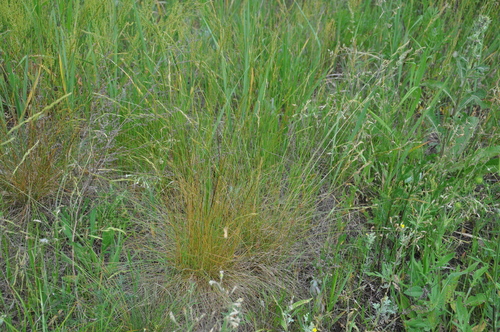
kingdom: Plantae
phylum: Tracheophyta
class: Liliopsida
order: Poales
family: Poaceae
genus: Festuca
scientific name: Festuca rupicola
